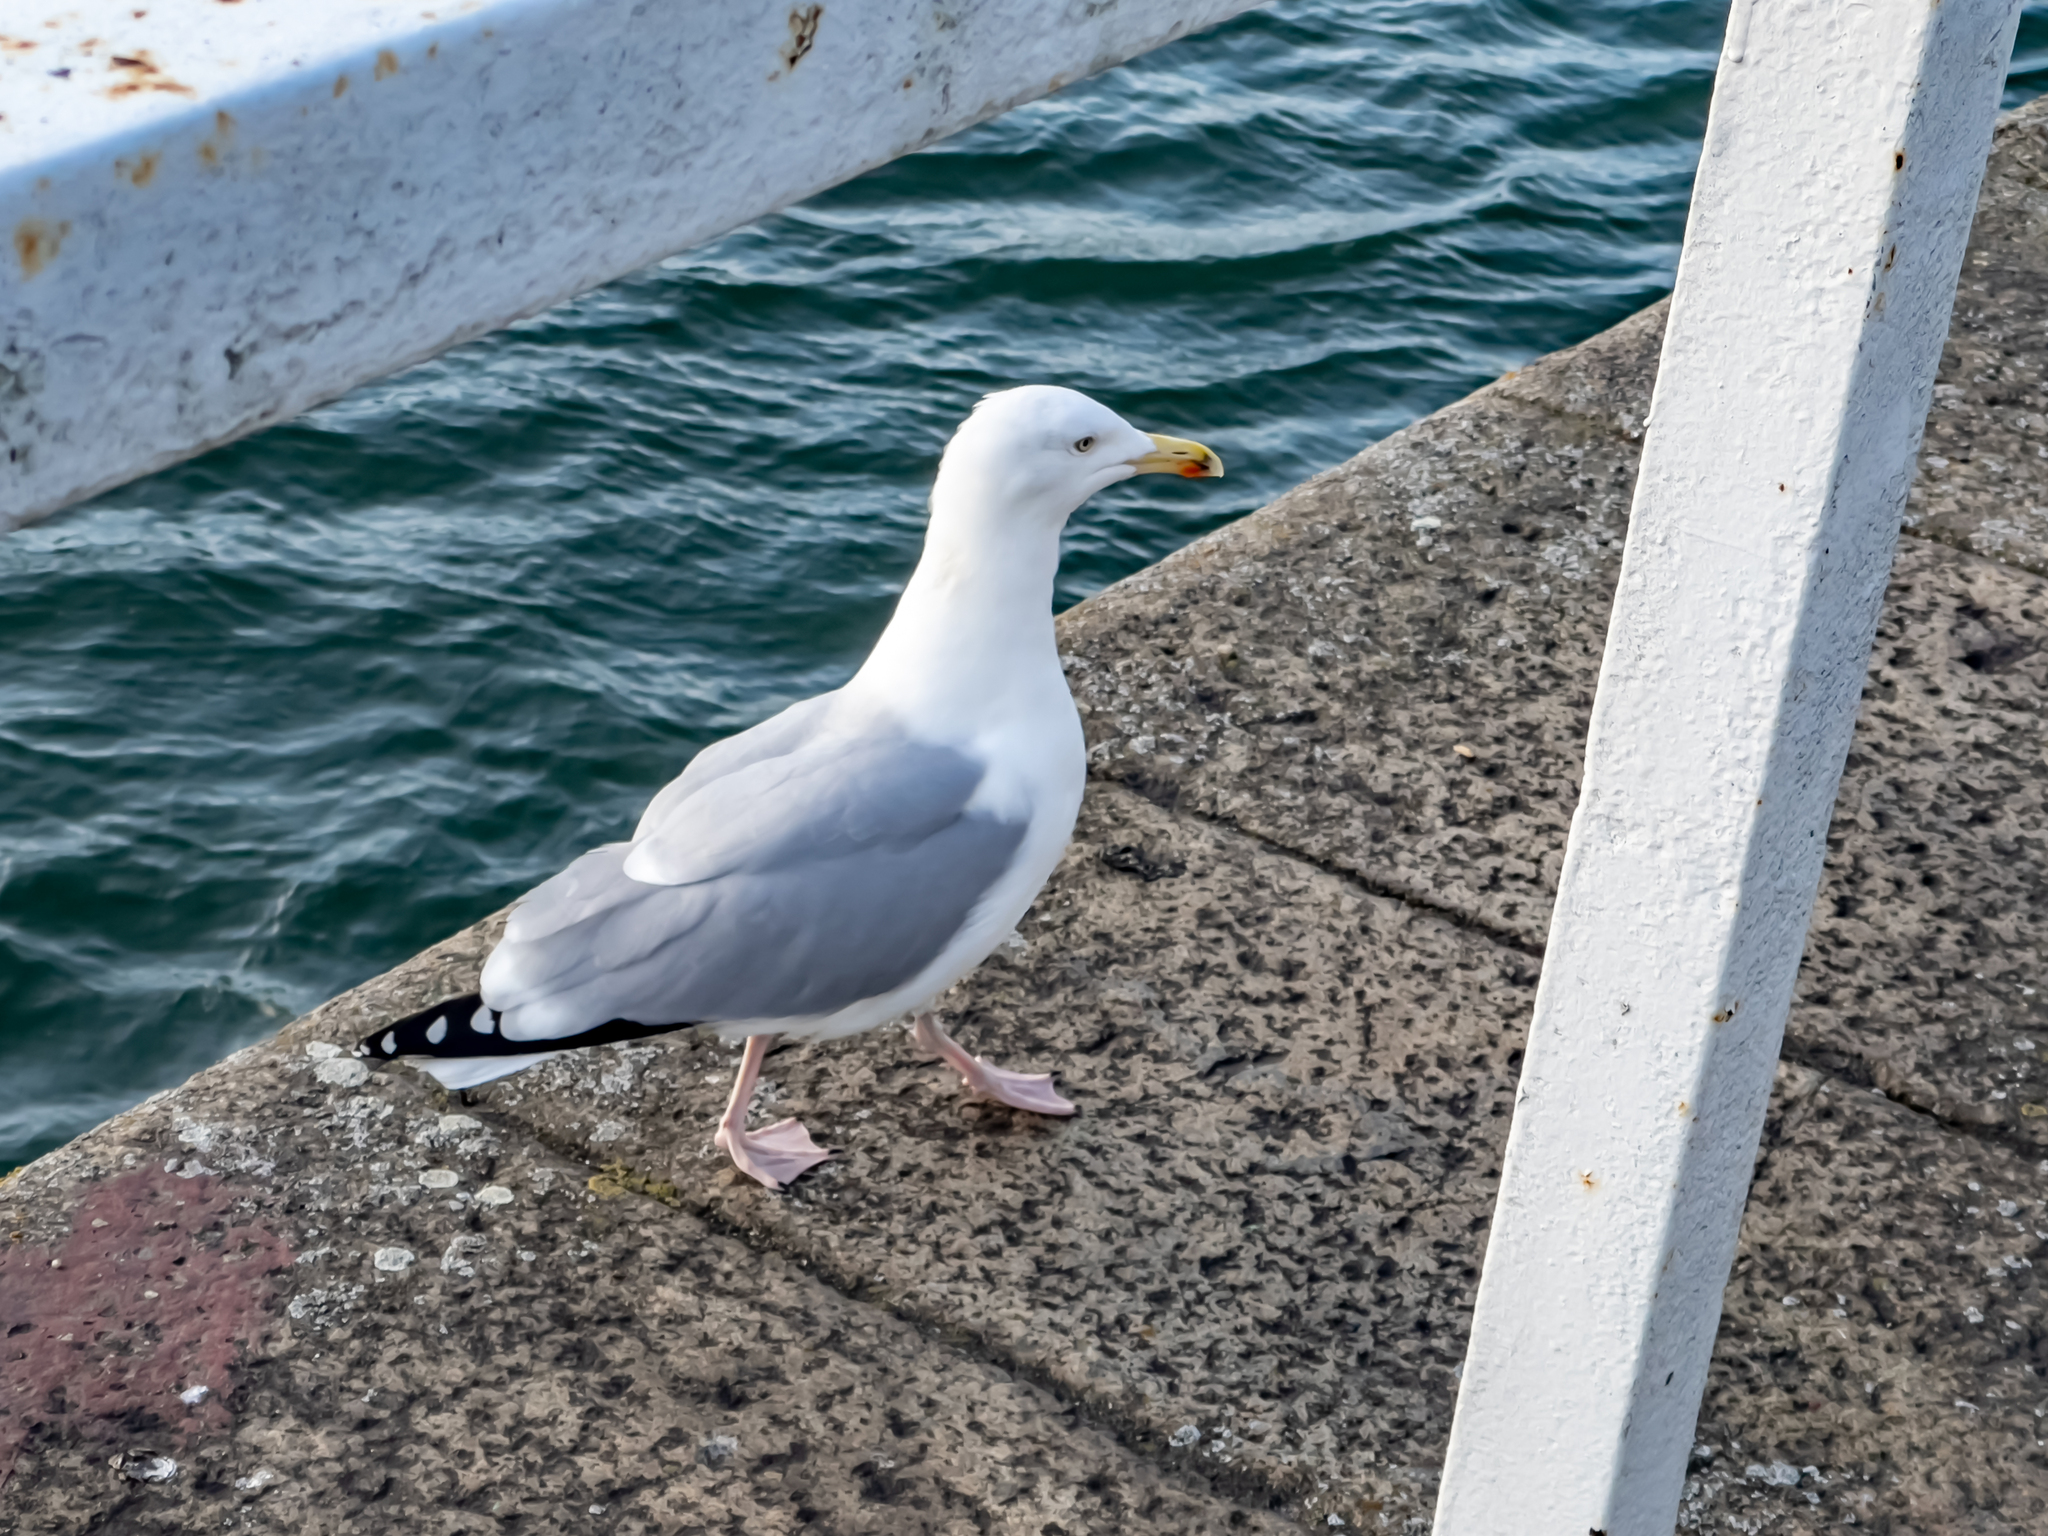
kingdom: Animalia
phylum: Chordata
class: Aves
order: Charadriiformes
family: Laridae
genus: Larus
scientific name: Larus argentatus
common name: Herring gull
